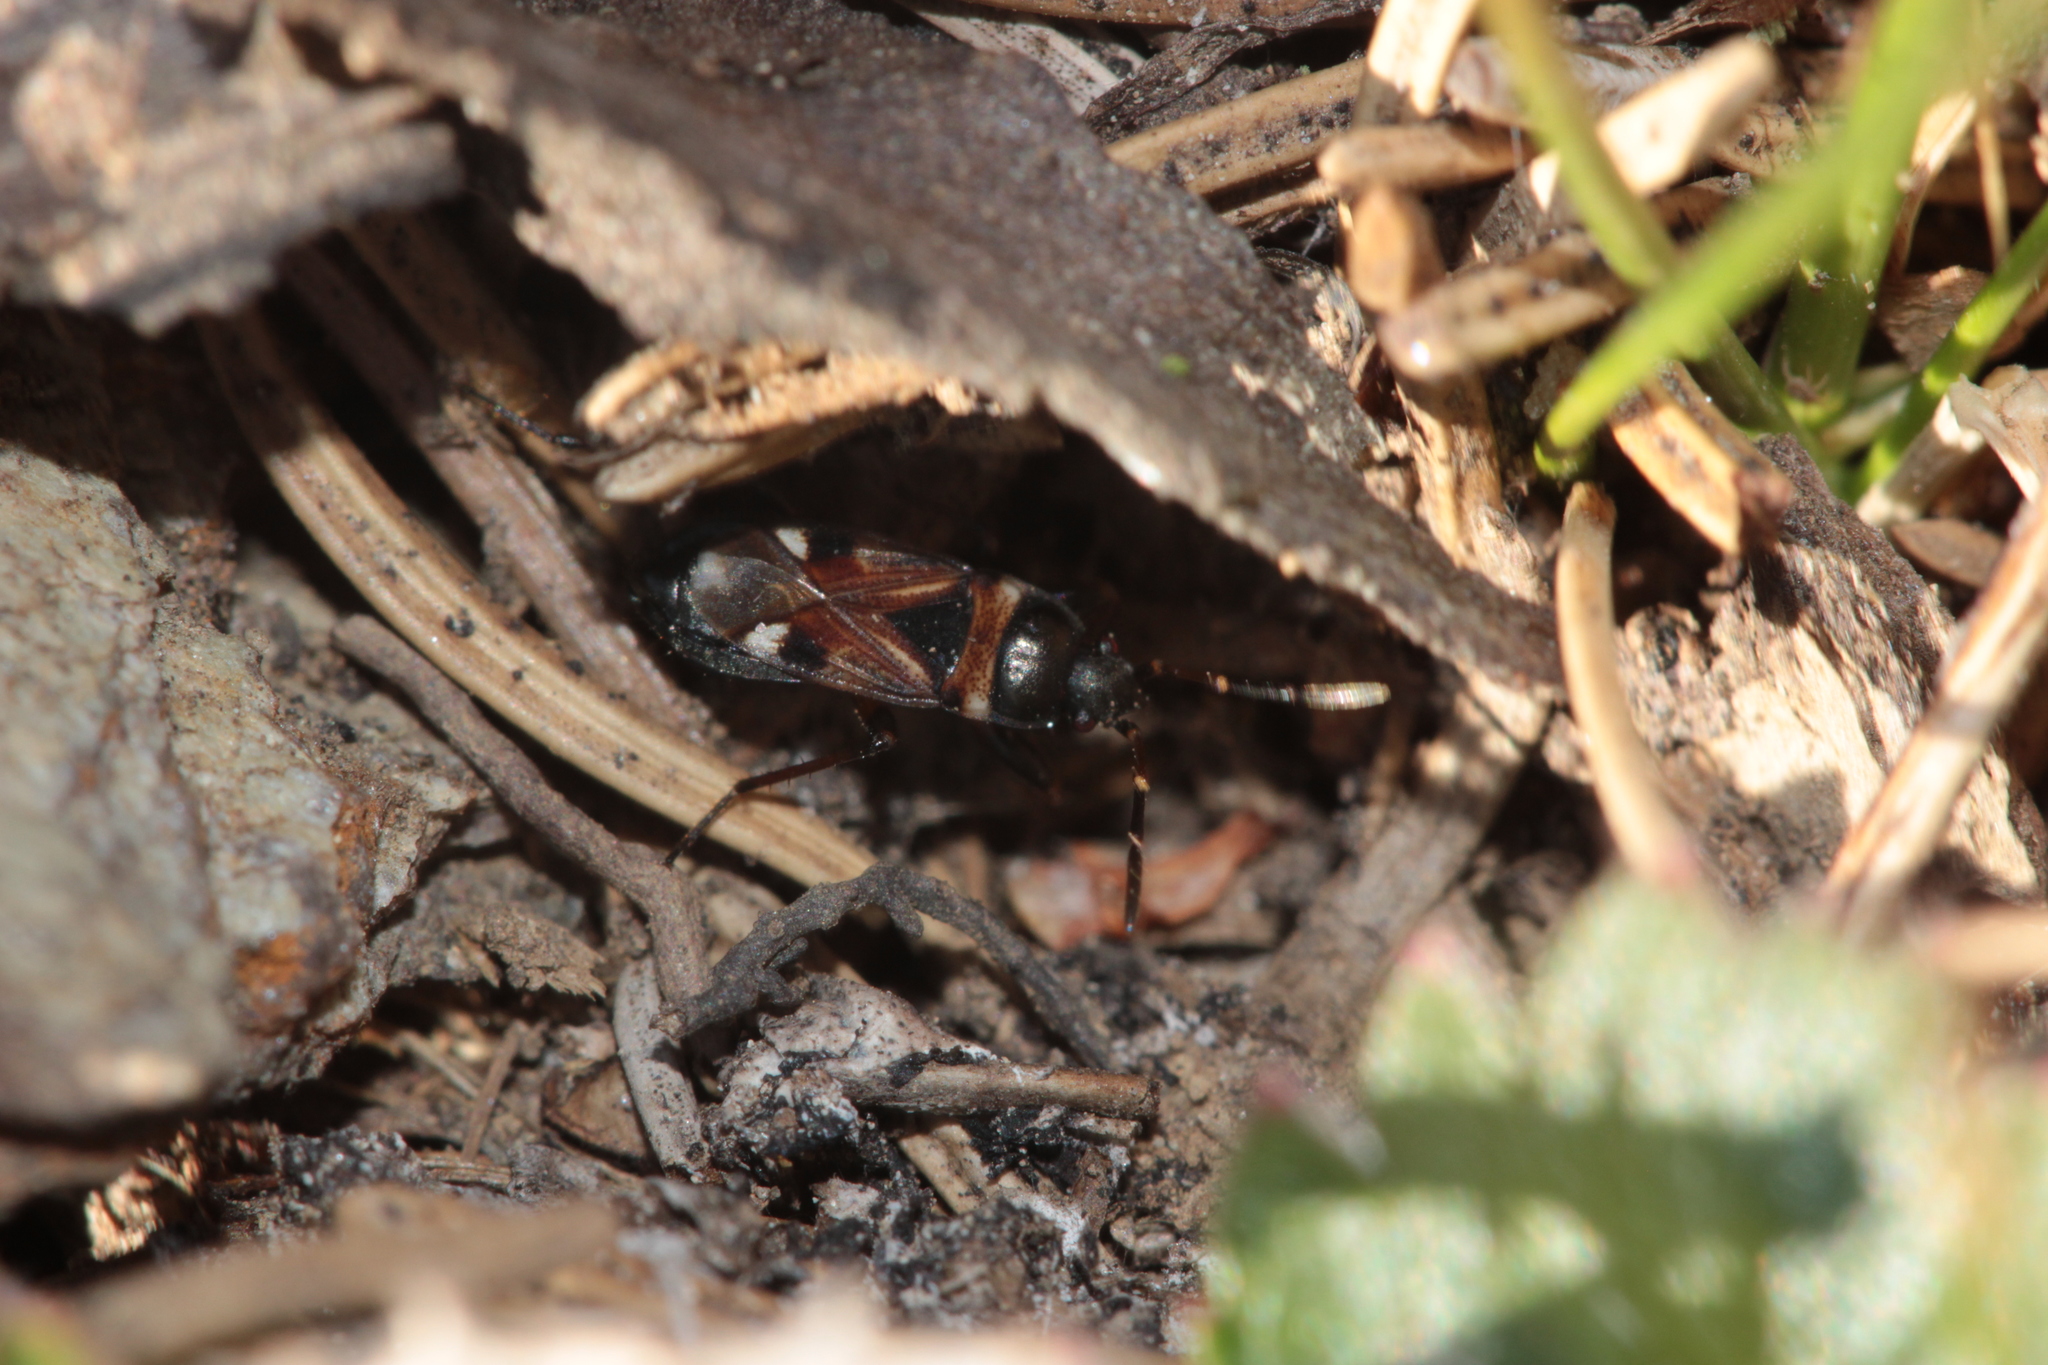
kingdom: Animalia
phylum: Arthropoda
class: Insecta
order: Hemiptera
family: Rhyparochromidae
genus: Raglius
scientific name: Raglius alboacuminatus
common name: Dirt-colored seed bug
